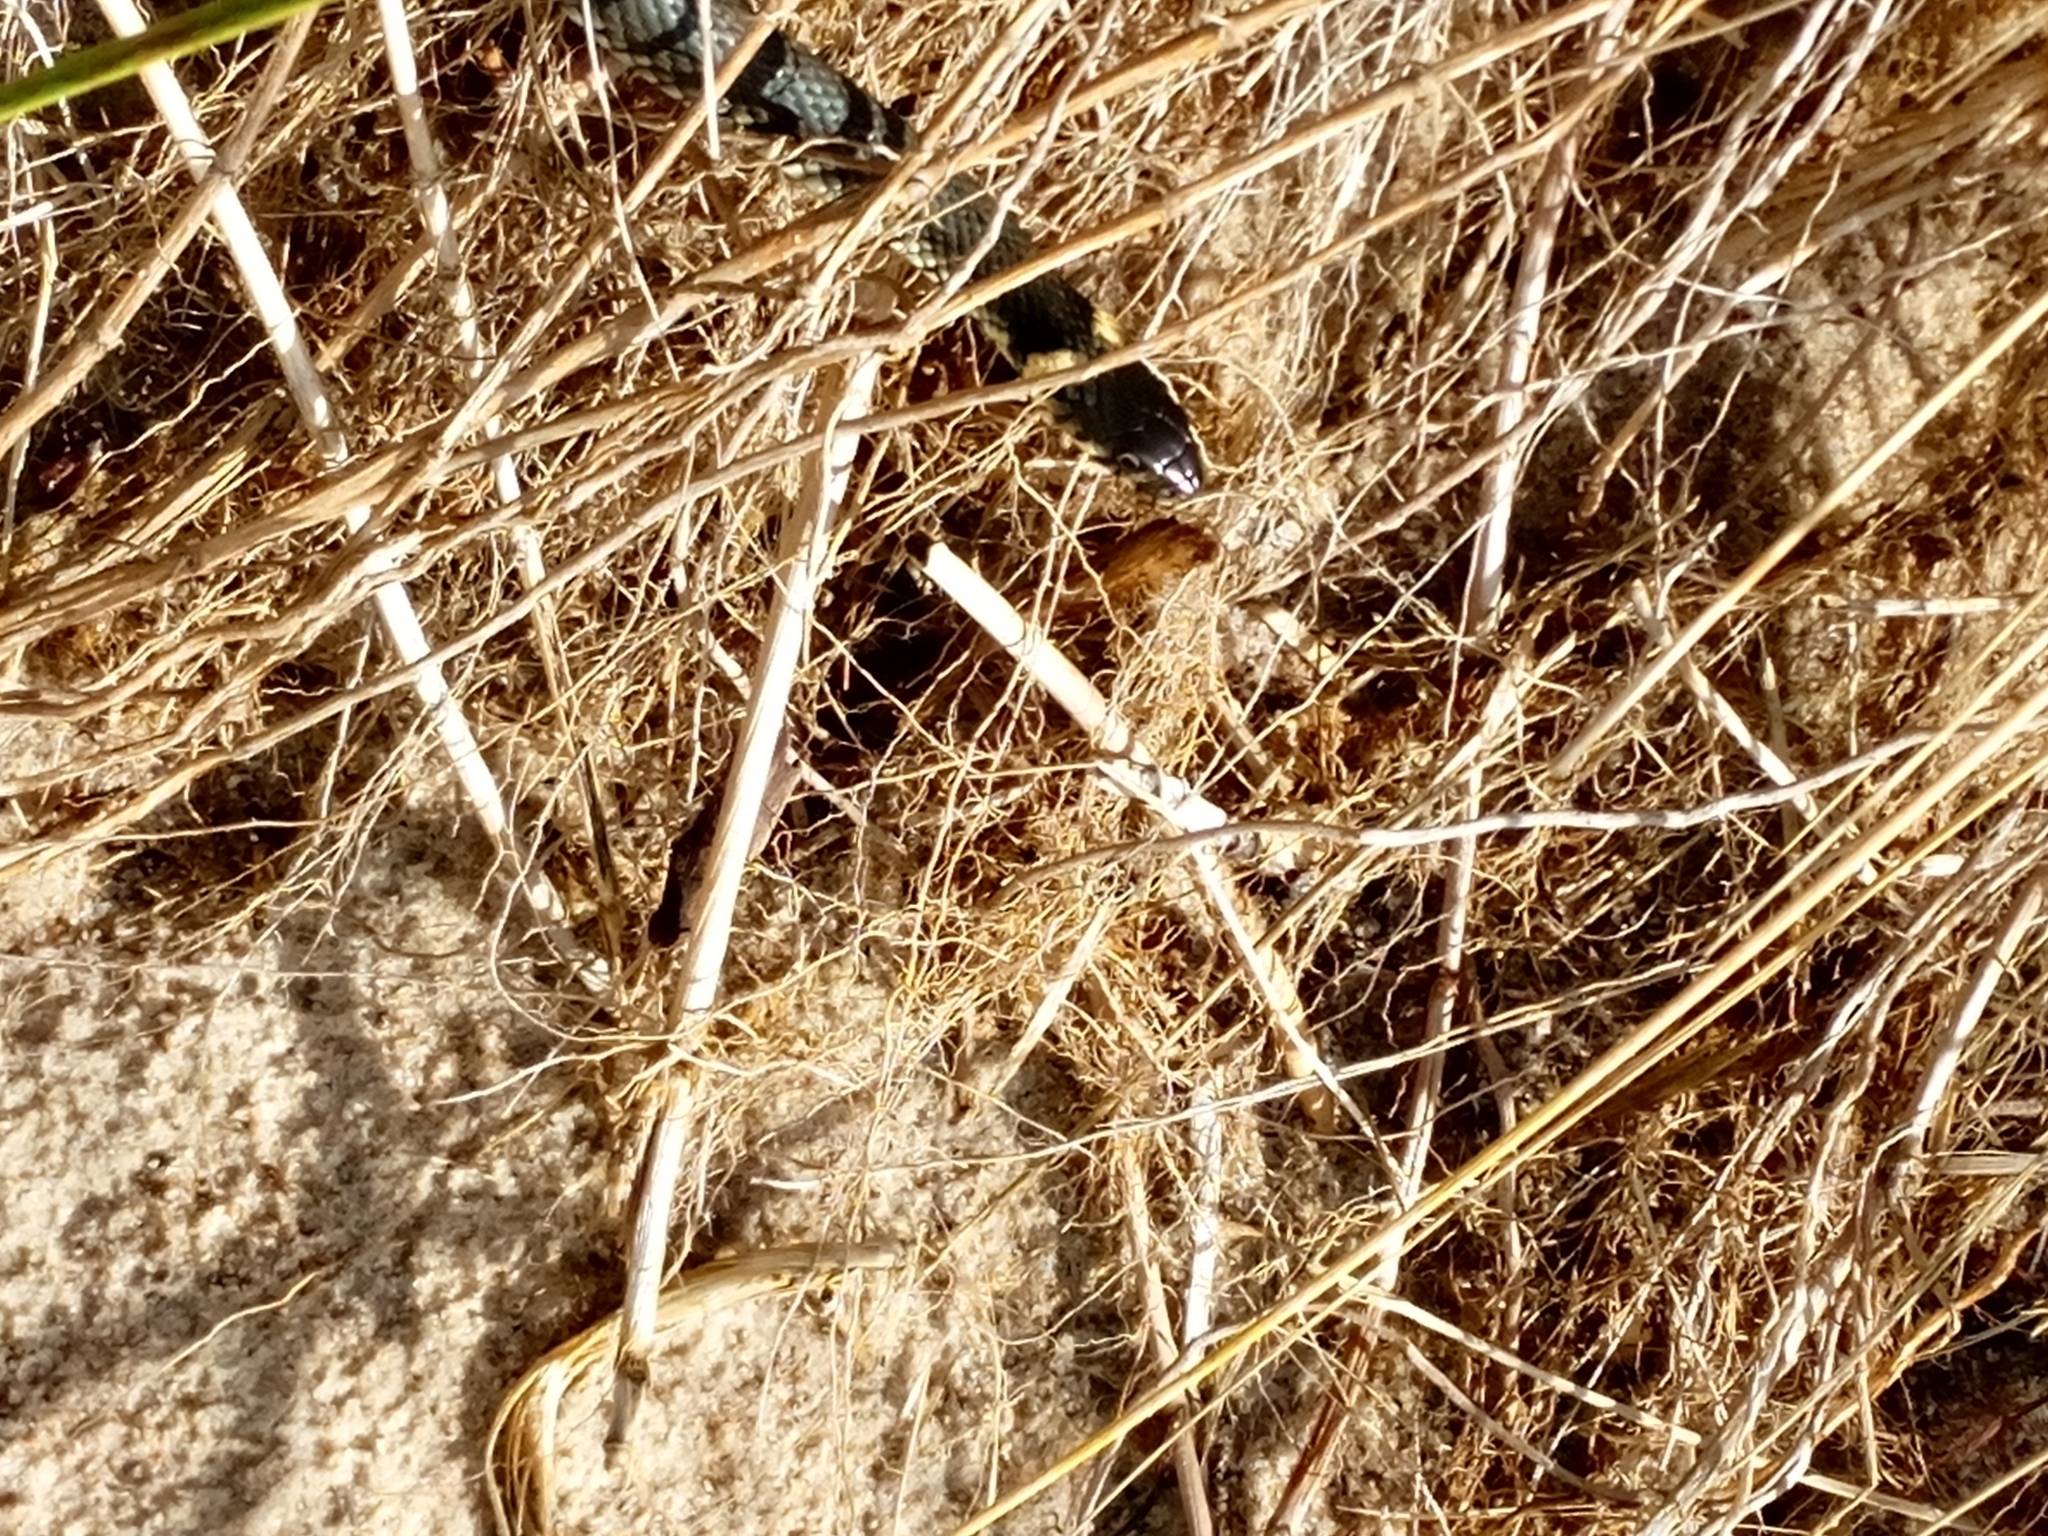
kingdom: Animalia
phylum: Chordata
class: Squamata
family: Colubridae
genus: Natrix
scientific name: Natrix natrix
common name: Grass snake
